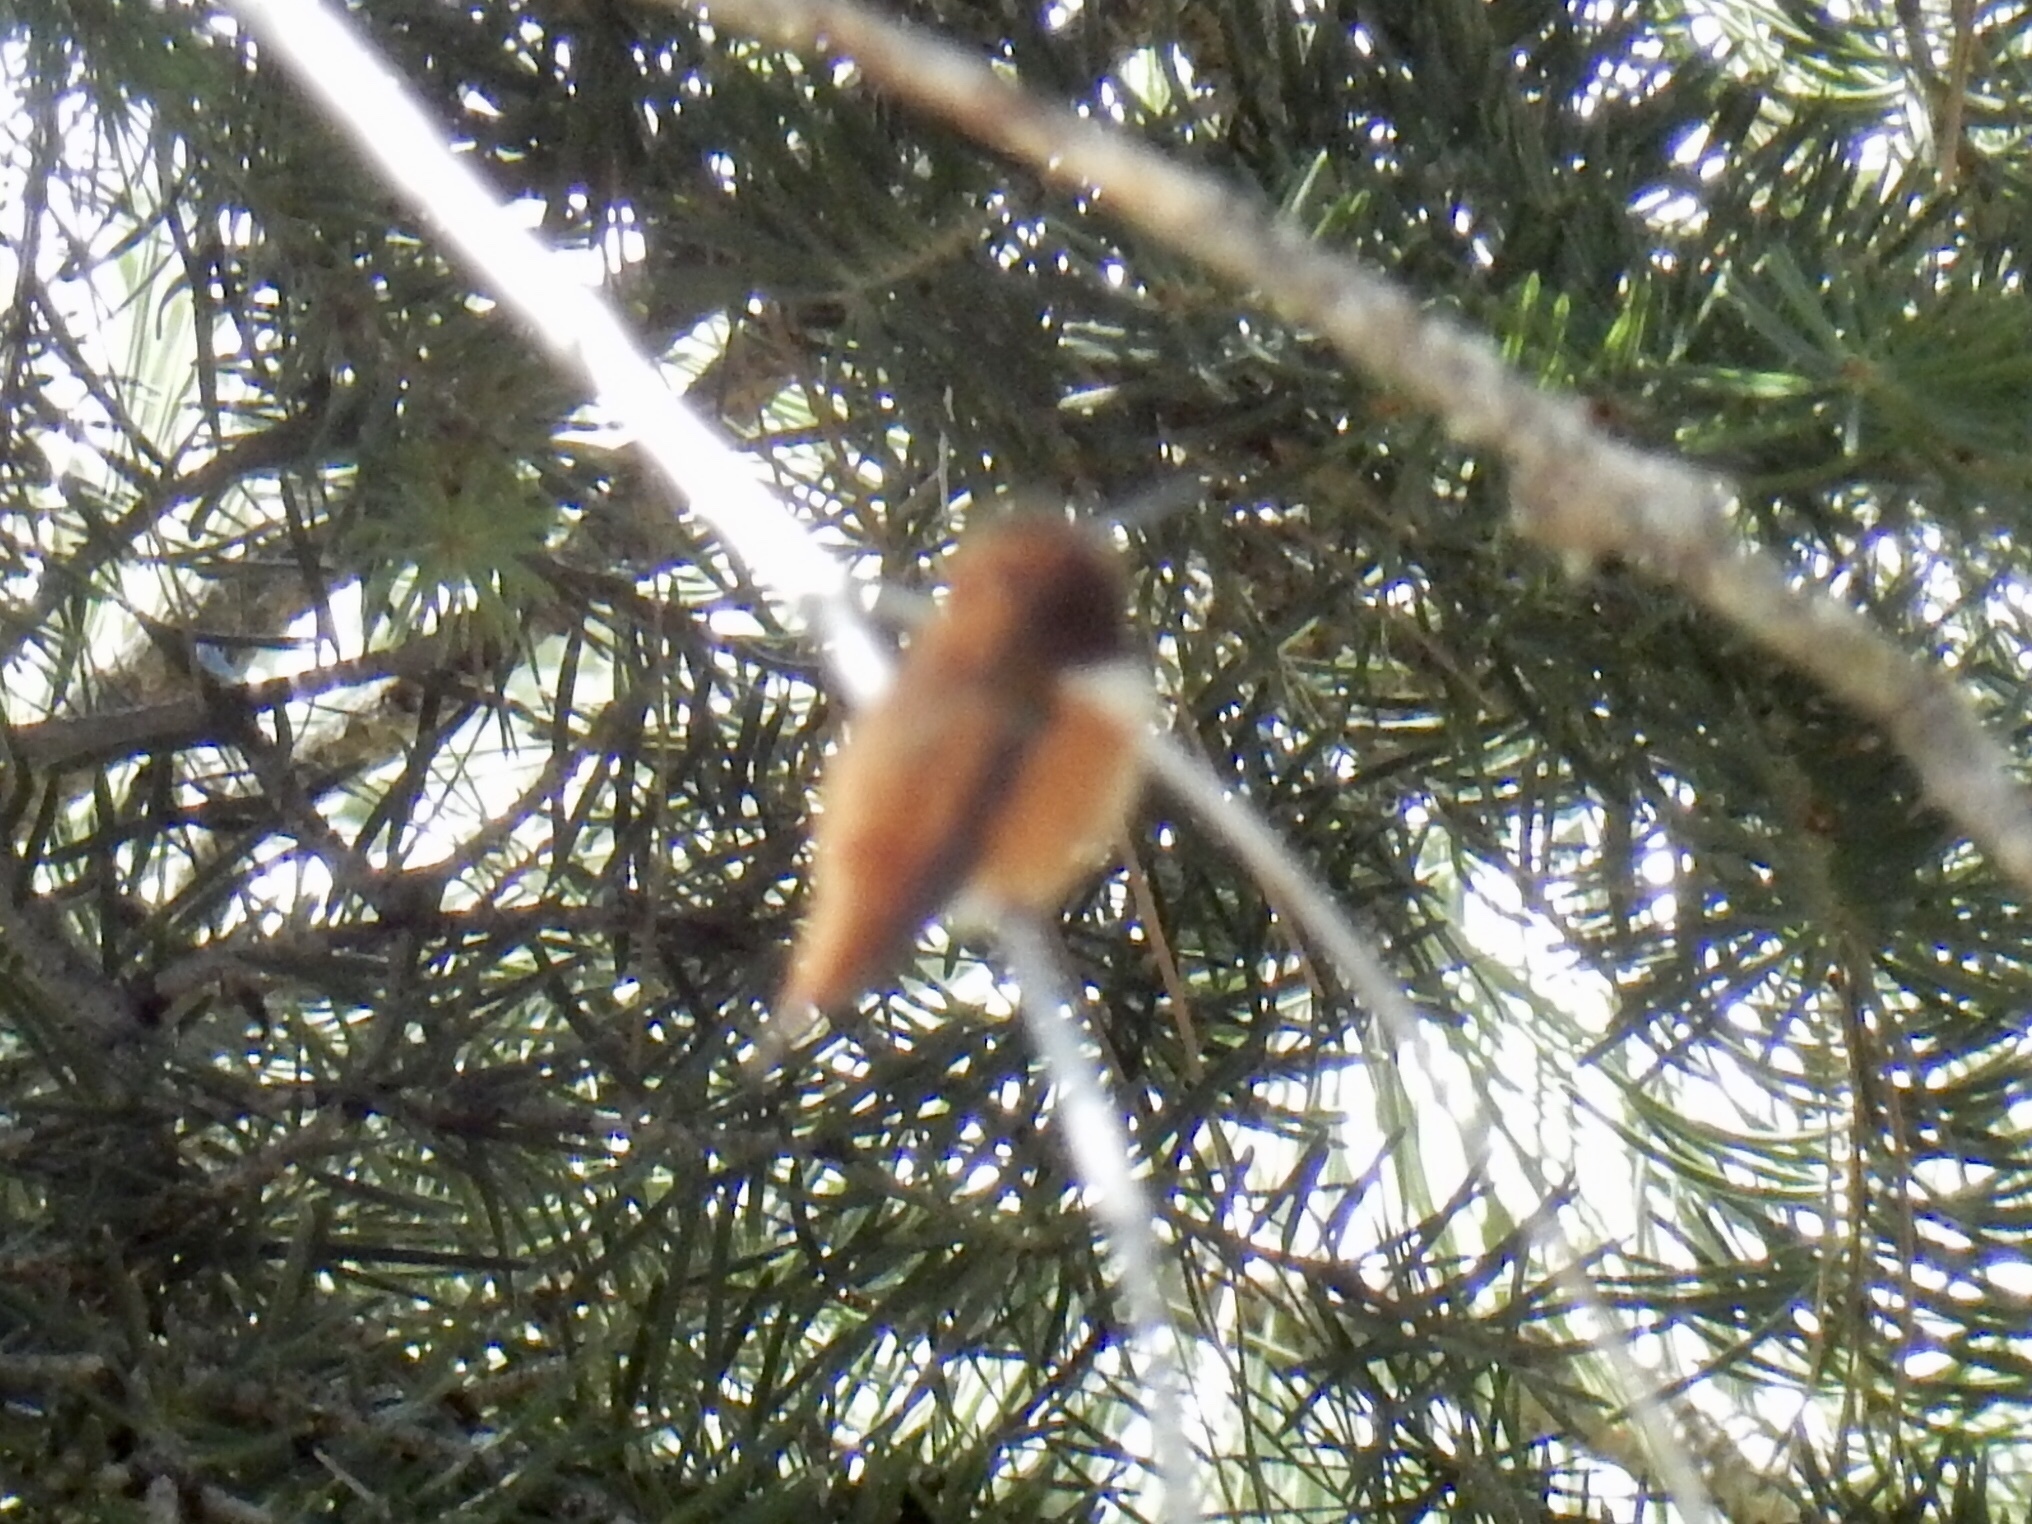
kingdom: Animalia
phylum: Chordata
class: Aves
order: Apodiformes
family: Trochilidae
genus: Selasphorus
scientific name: Selasphorus rufus
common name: Rufous hummingbird
